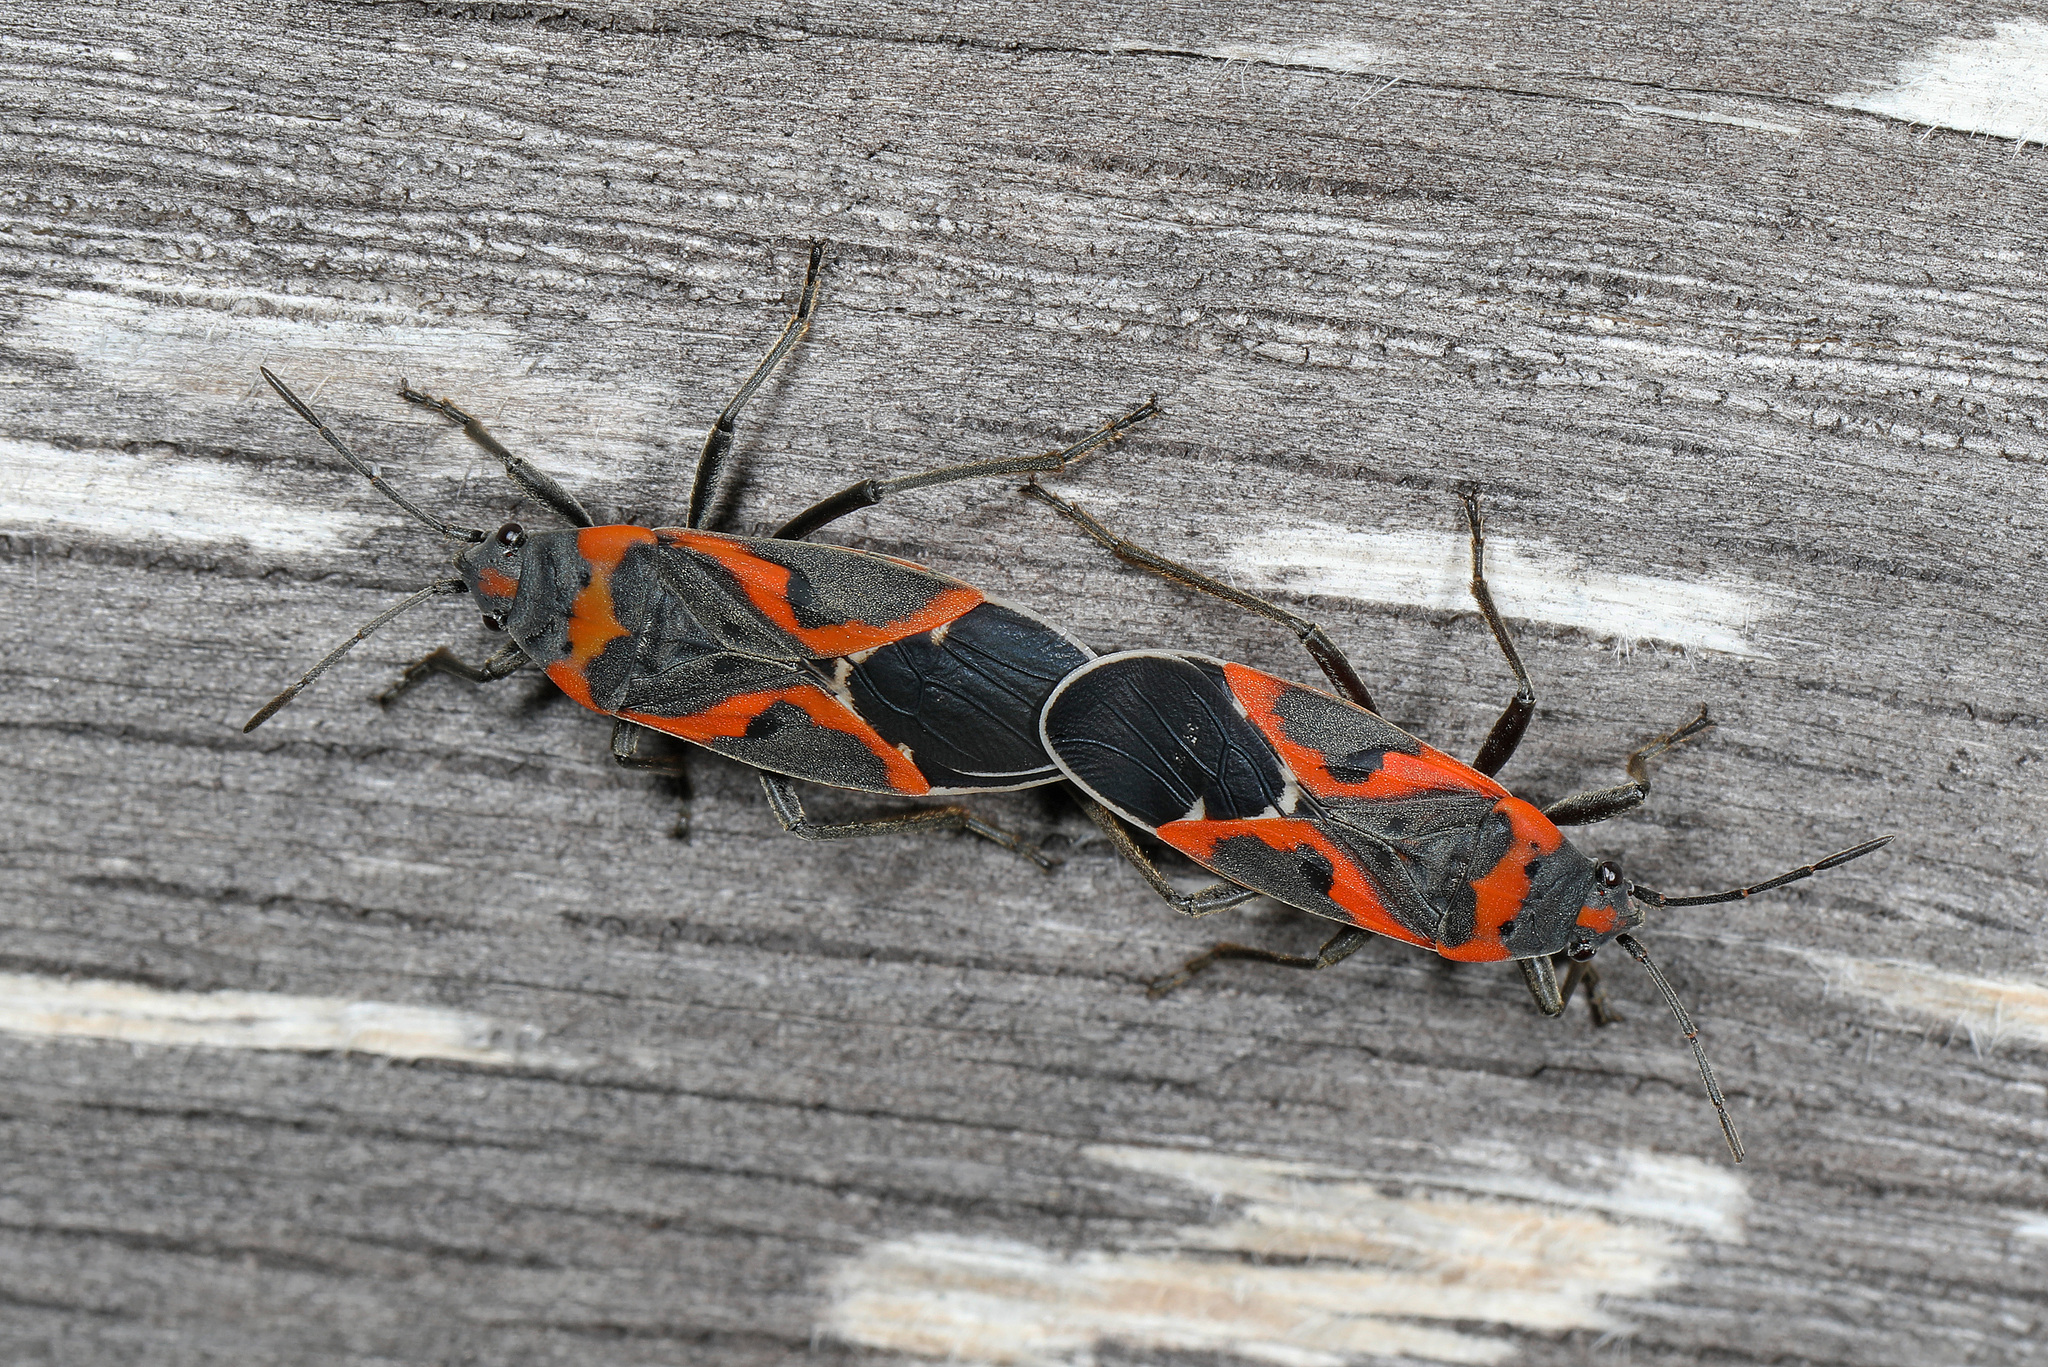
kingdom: Animalia
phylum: Arthropoda
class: Insecta
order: Hemiptera
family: Lygaeidae
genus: Lygaeus
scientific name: Lygaeus kalmii
